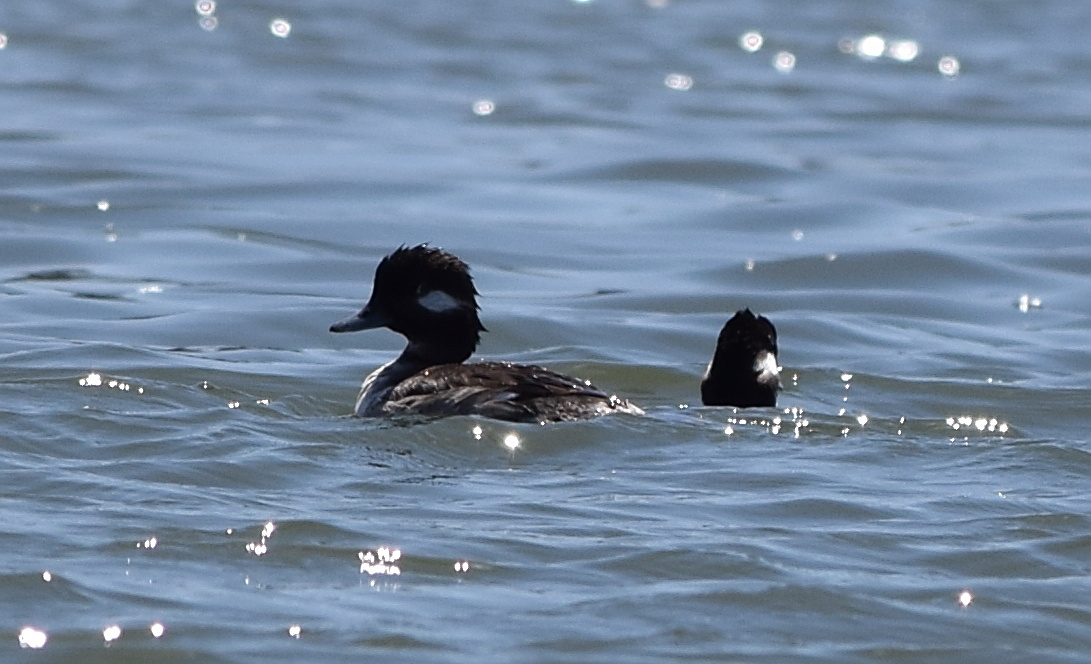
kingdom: Animalia
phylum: Chordata
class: Aves
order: Anseriformes
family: Anatidae
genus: Bucephala
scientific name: Bucephala albeola
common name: Bufflehead
